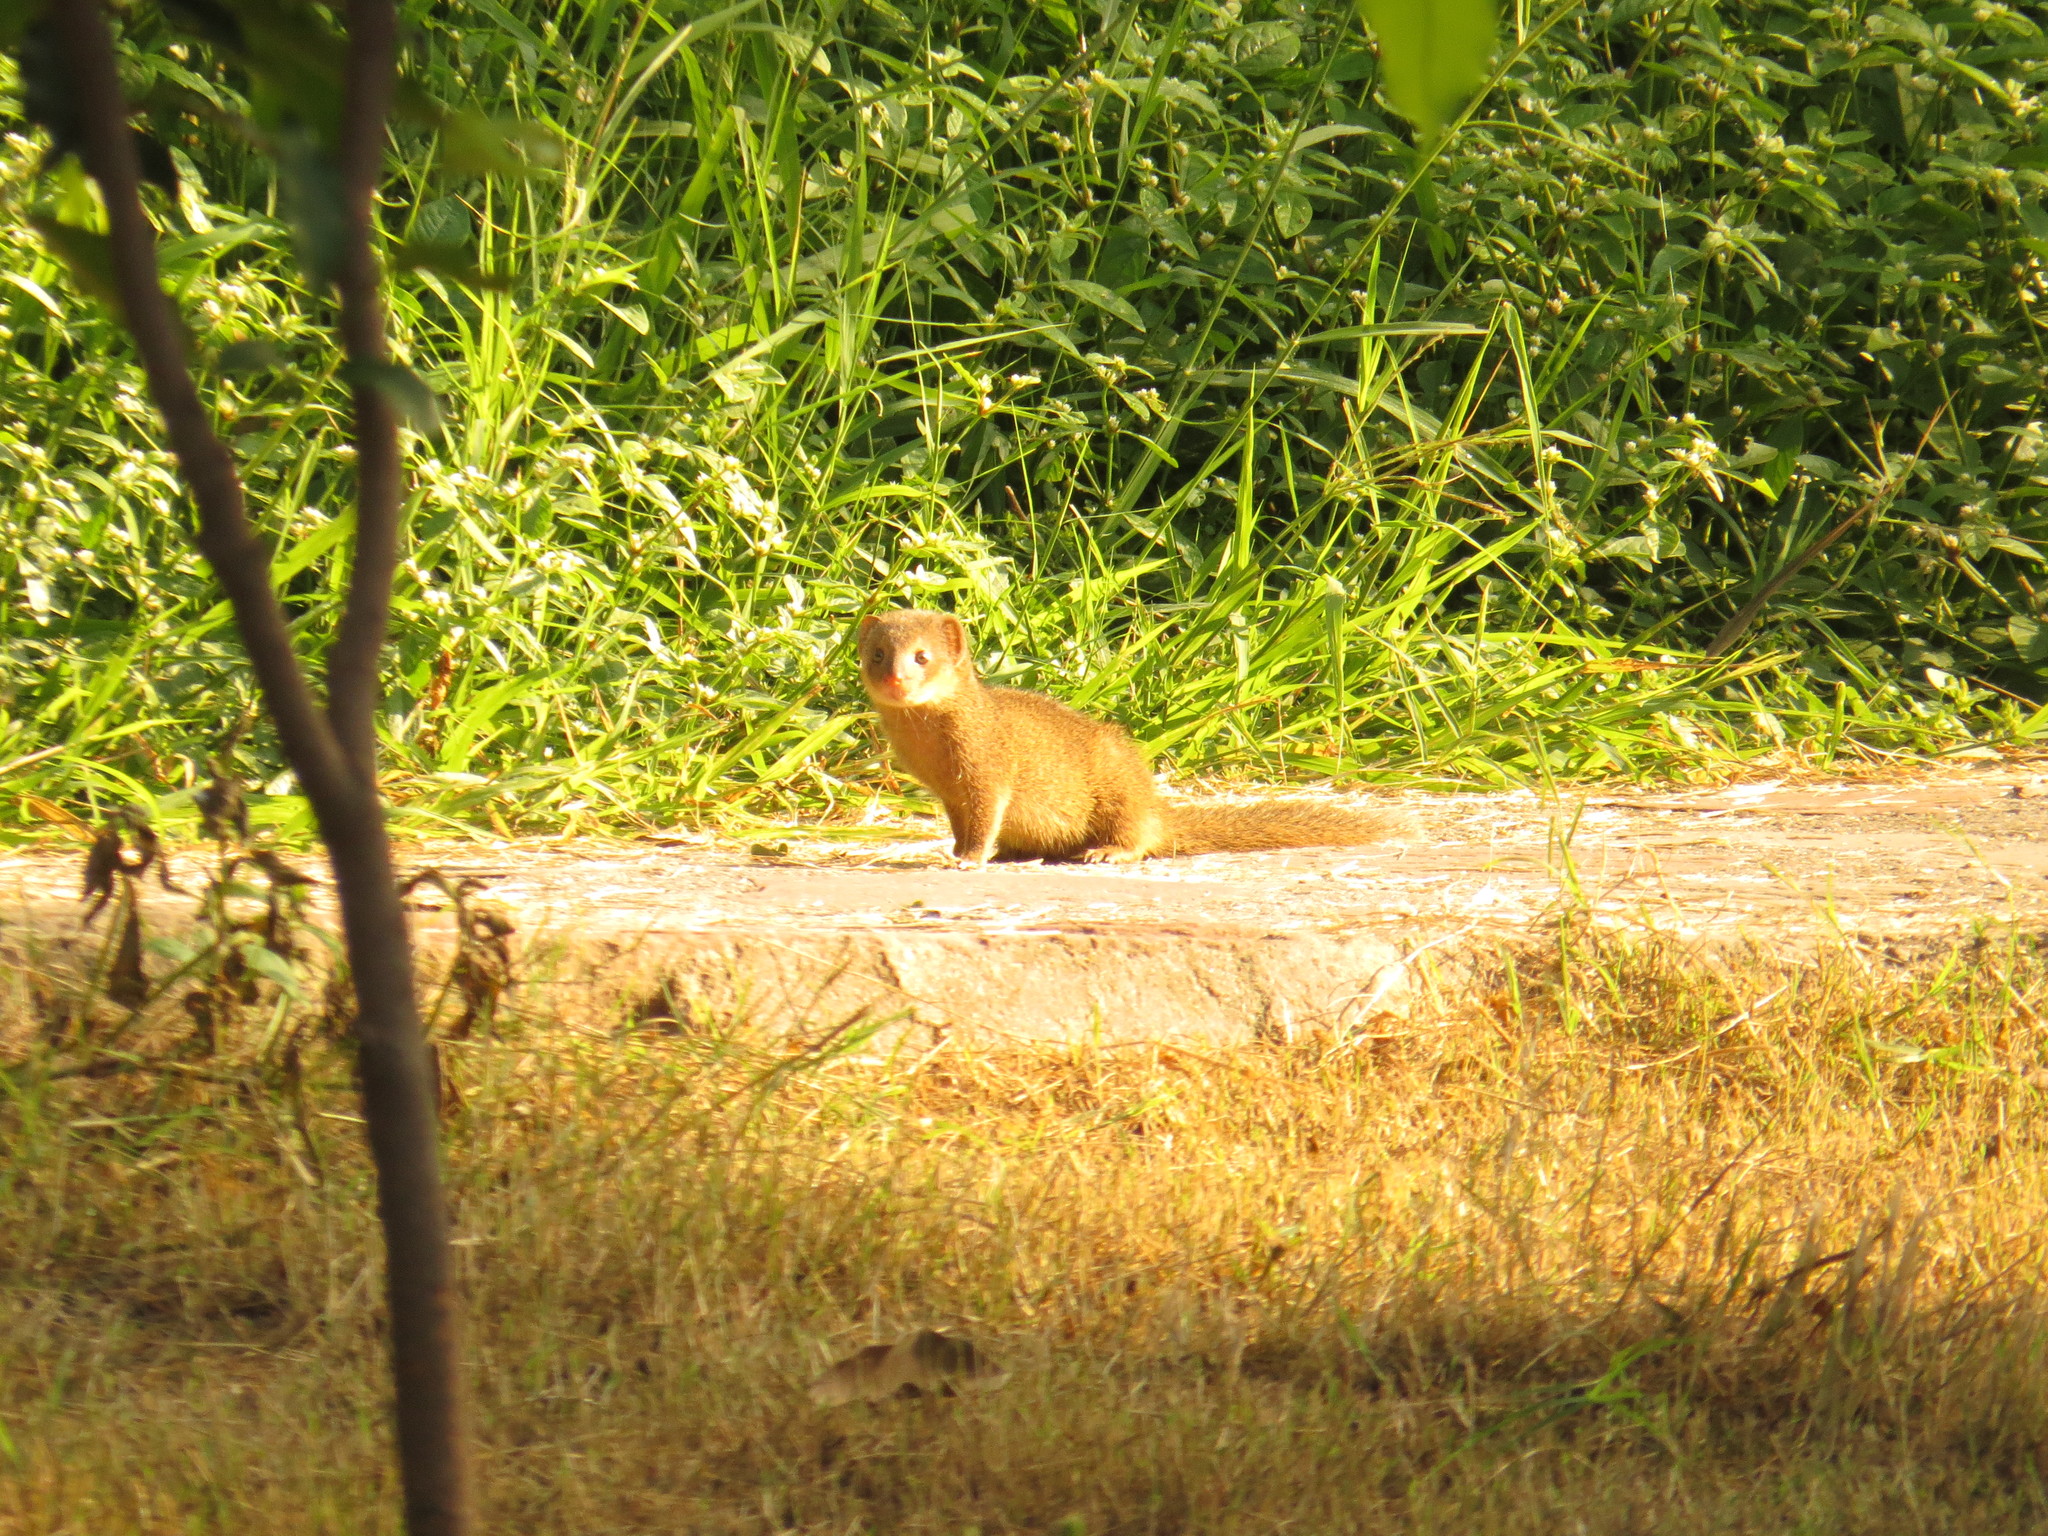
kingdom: Animalia
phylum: Chordata
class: Mammalia
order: Carnivora
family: Herpestidae
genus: Herpestes
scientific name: Herpestes javanicus
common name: Small asian mongoose
